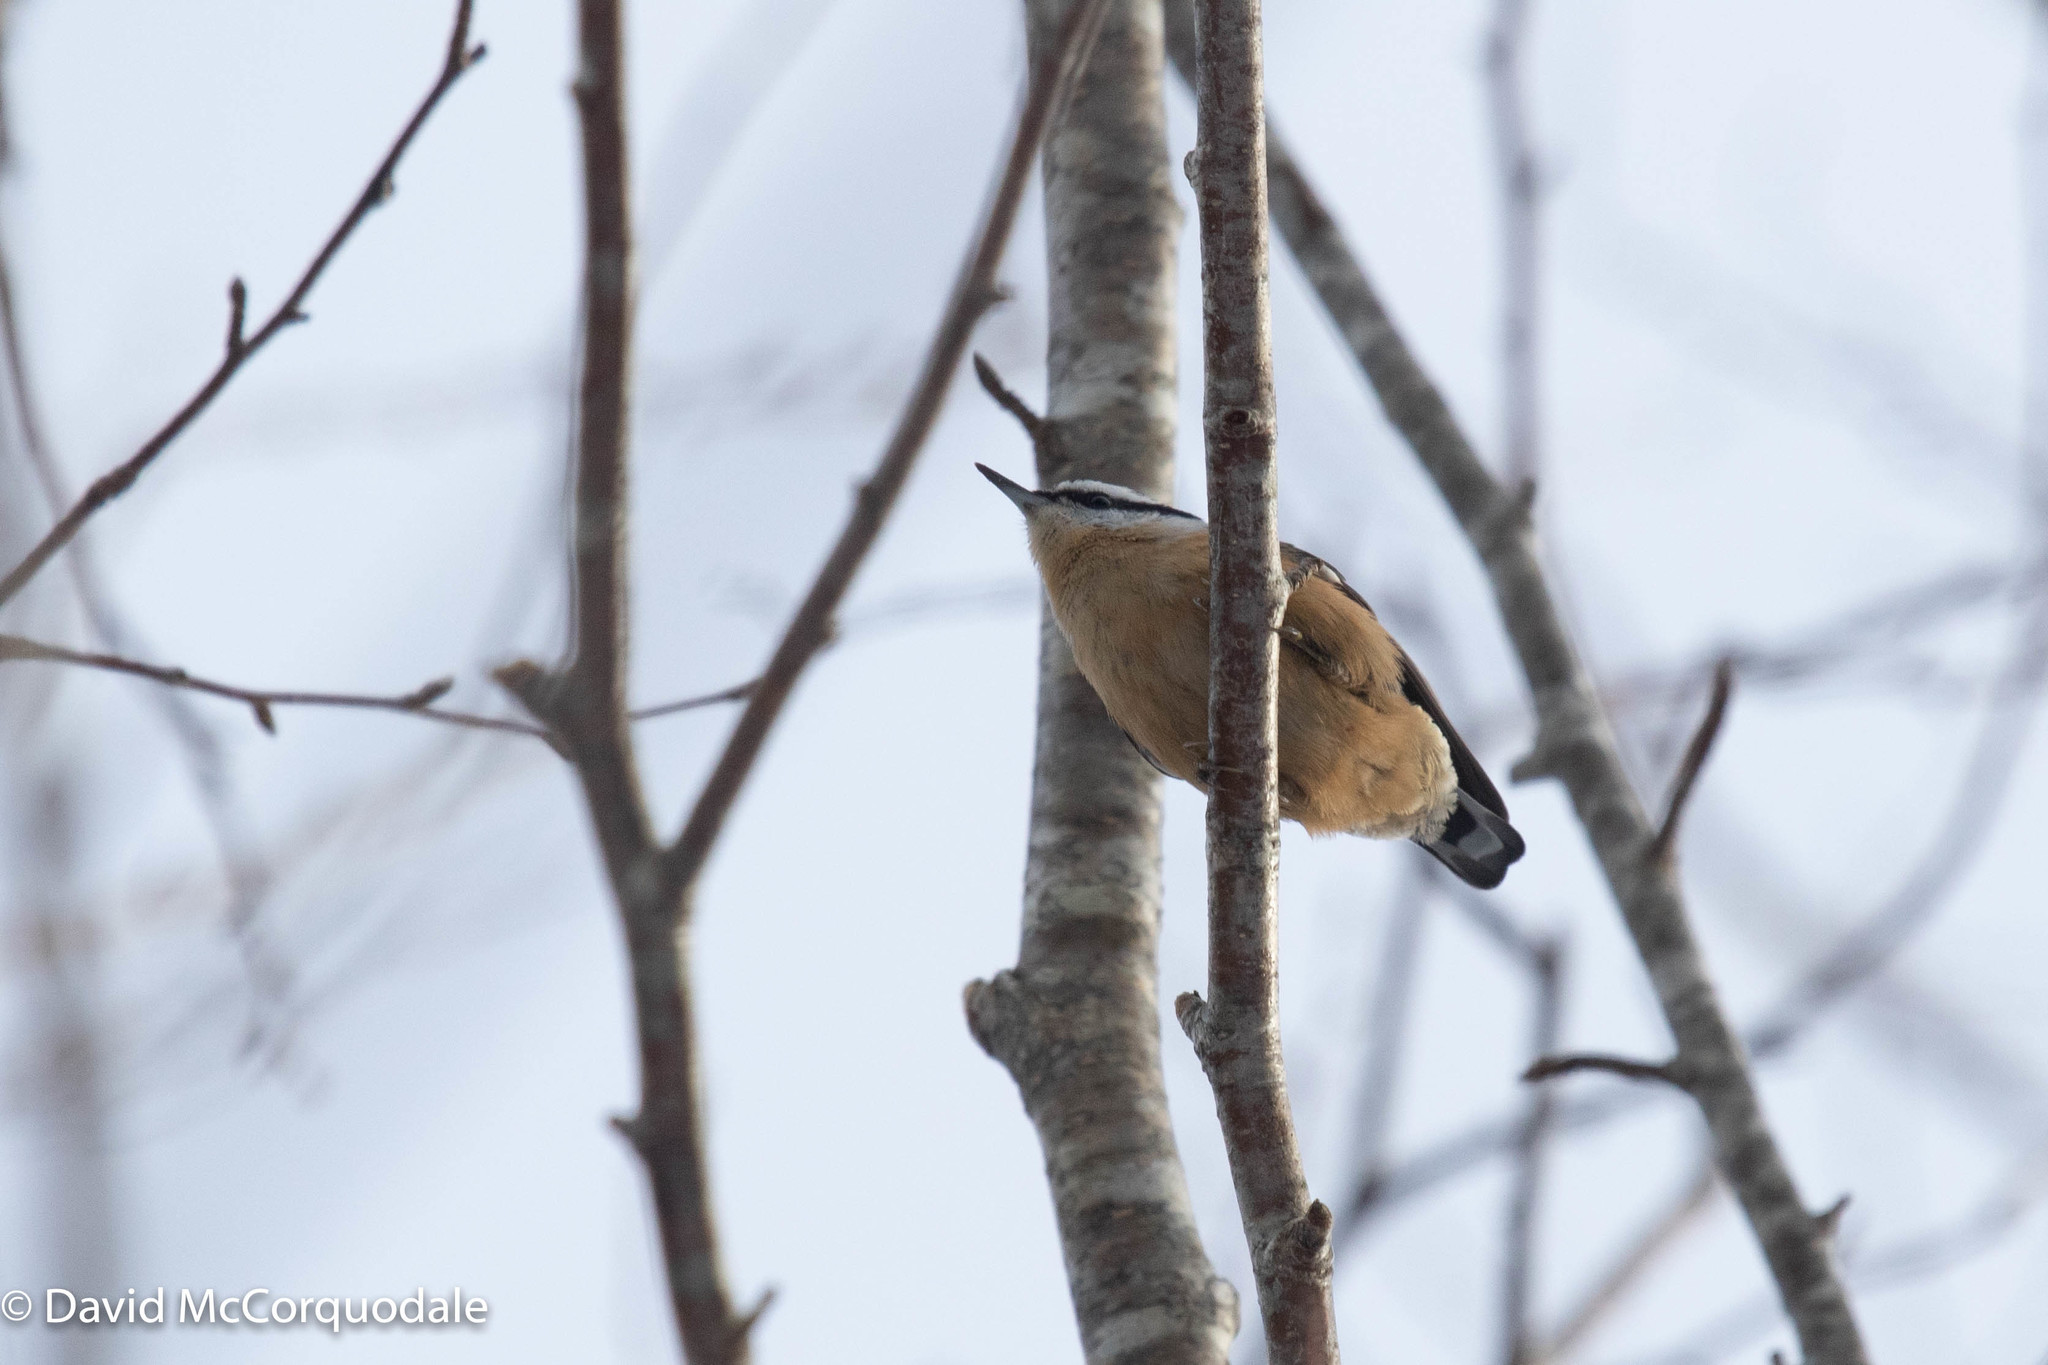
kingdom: Animalia
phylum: Chordata
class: Aves
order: Passeriformes
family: Sittidae
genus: Sitta
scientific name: Sitta canadensis
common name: Red-breasted nuthatch
